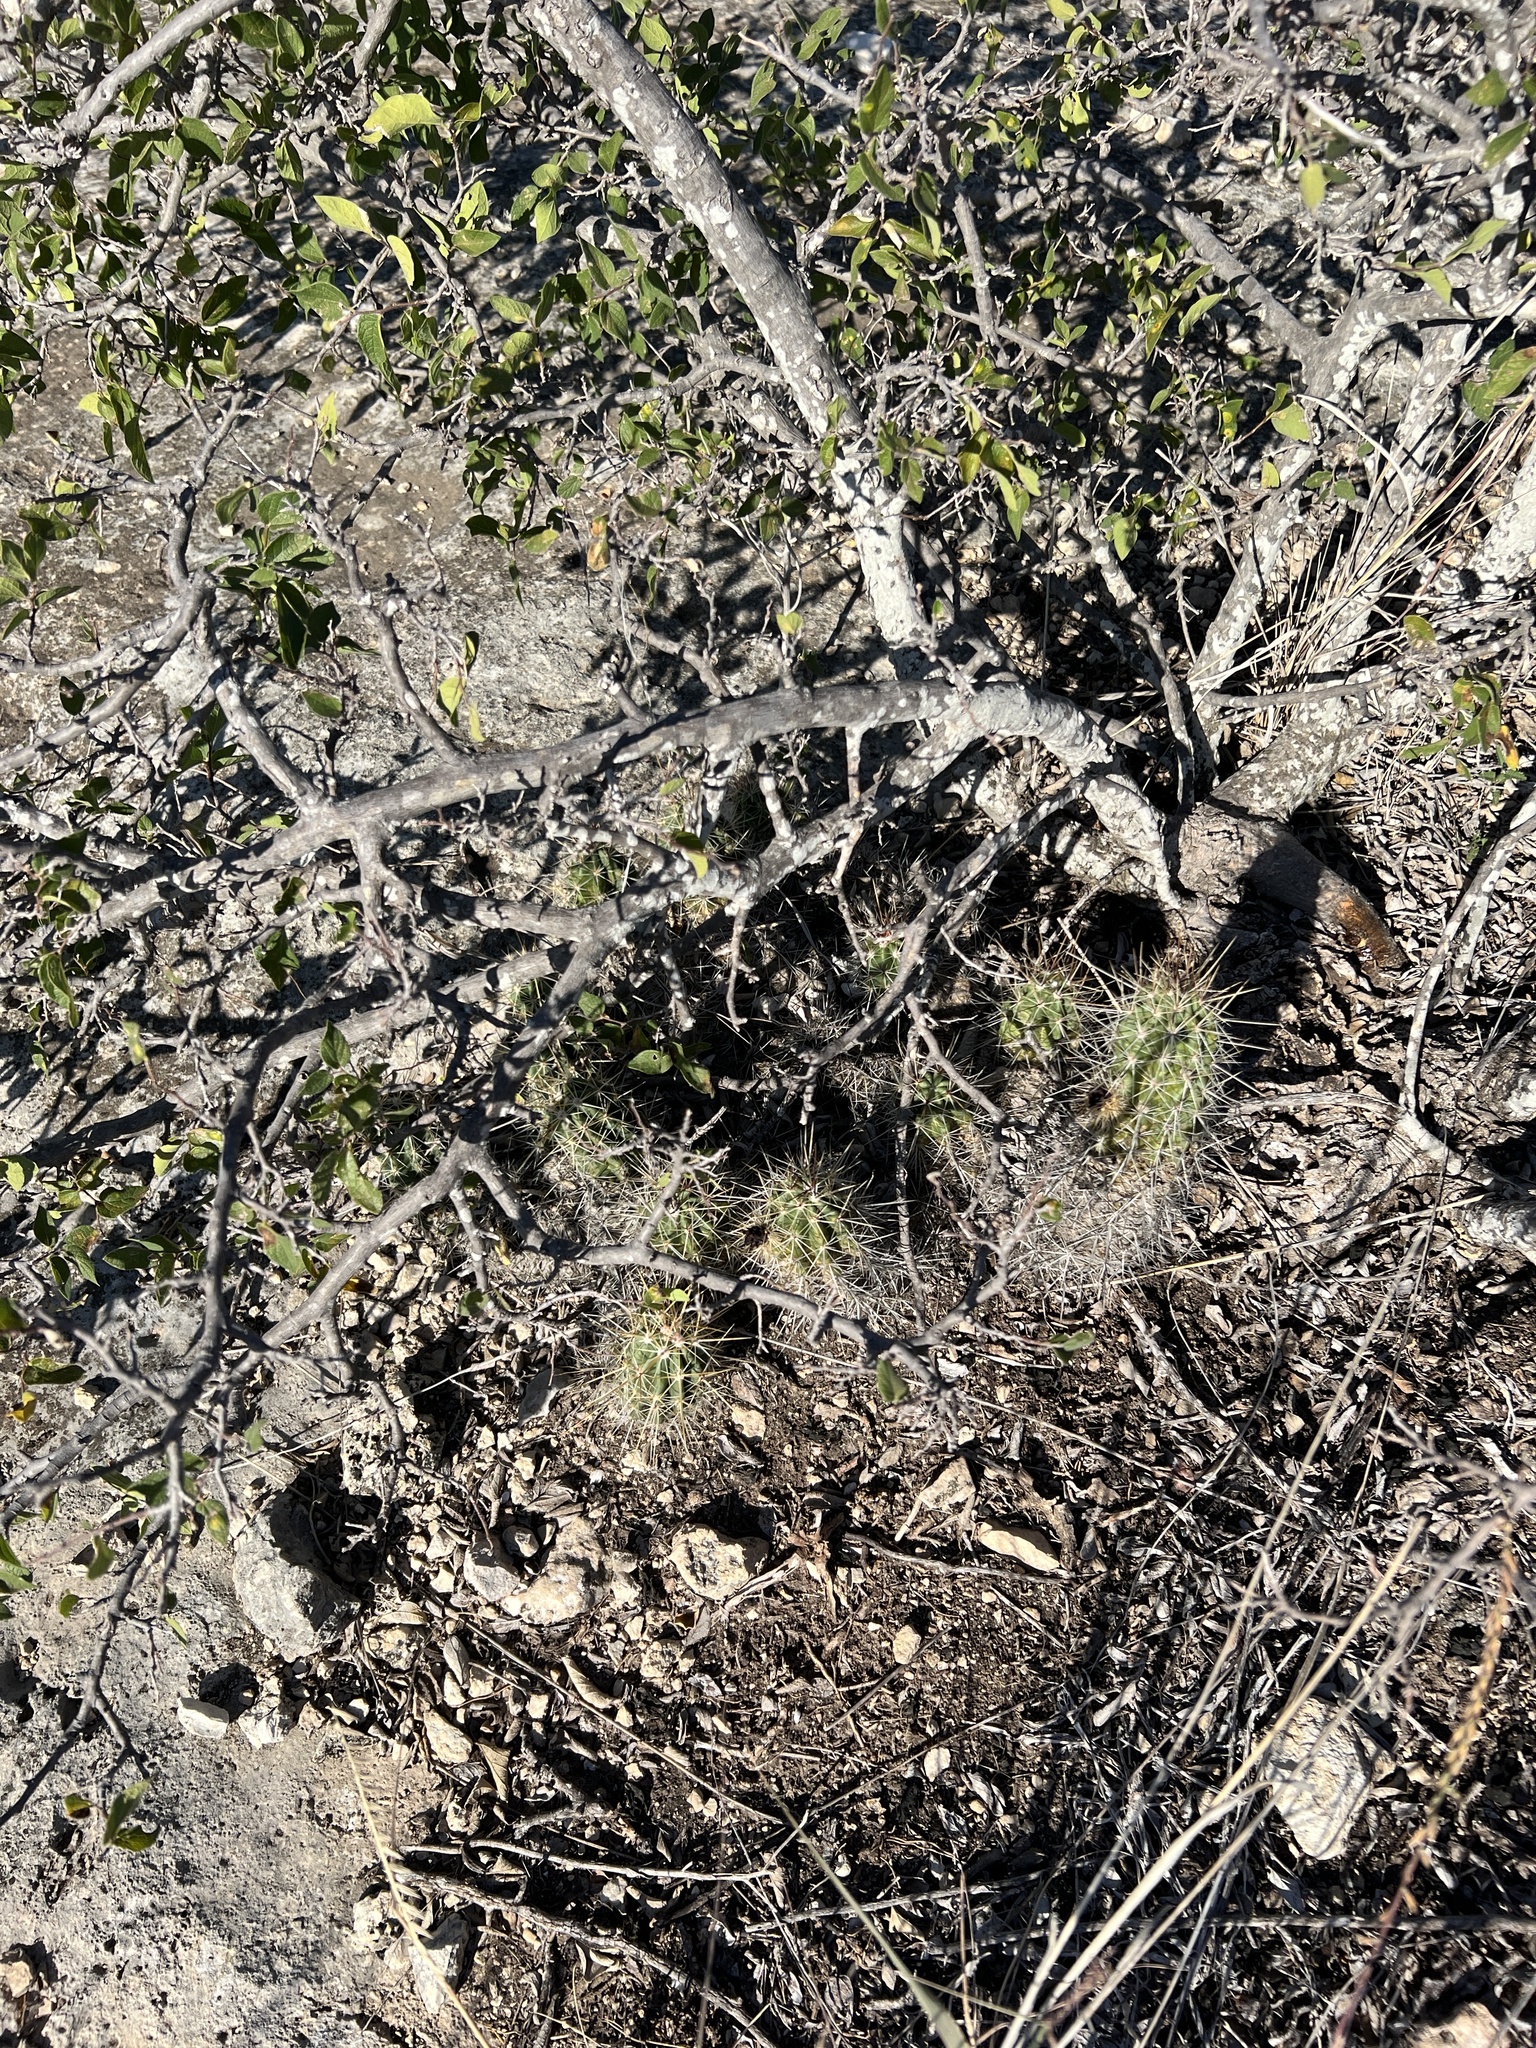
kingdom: Plantae
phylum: Tracheophyta
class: Magnoliopsida
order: Caryophyllales
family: Cactaceae
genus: Echinocereus
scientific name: Echinocereus enneacanthus
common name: Pitaya
